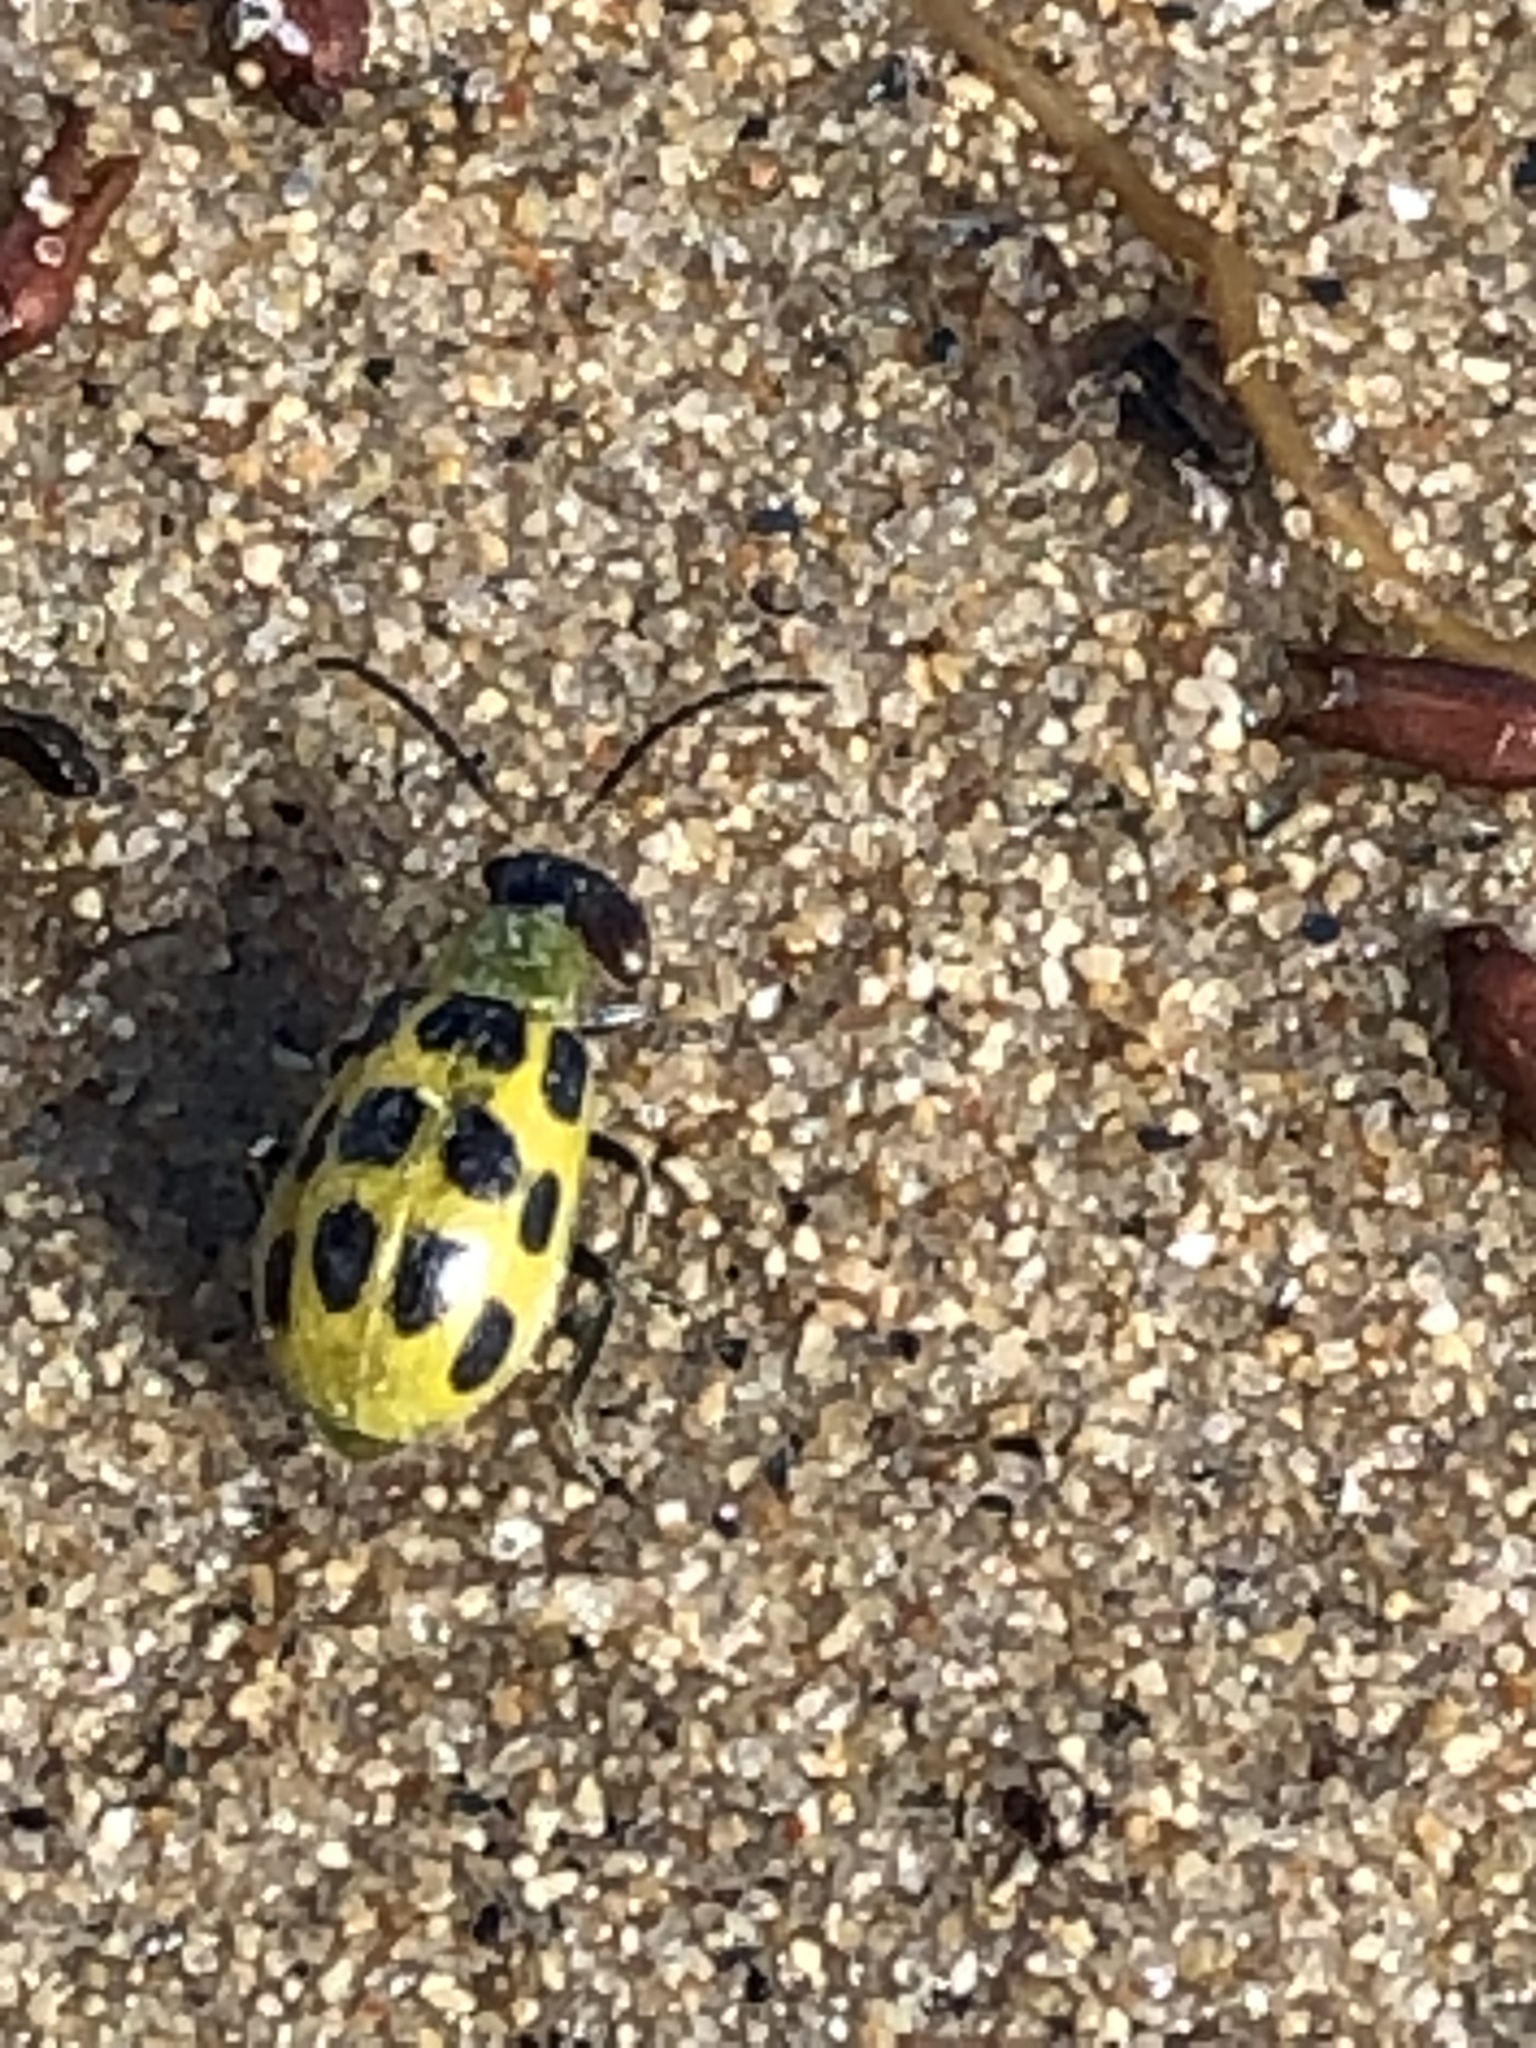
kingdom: Animalia
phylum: Arthropoda
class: Insecta
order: Coleoptera
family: Chrysomelidae
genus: Diabrotica
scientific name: Diabrotica undecimpunctata
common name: Spotted cucumber beetle
